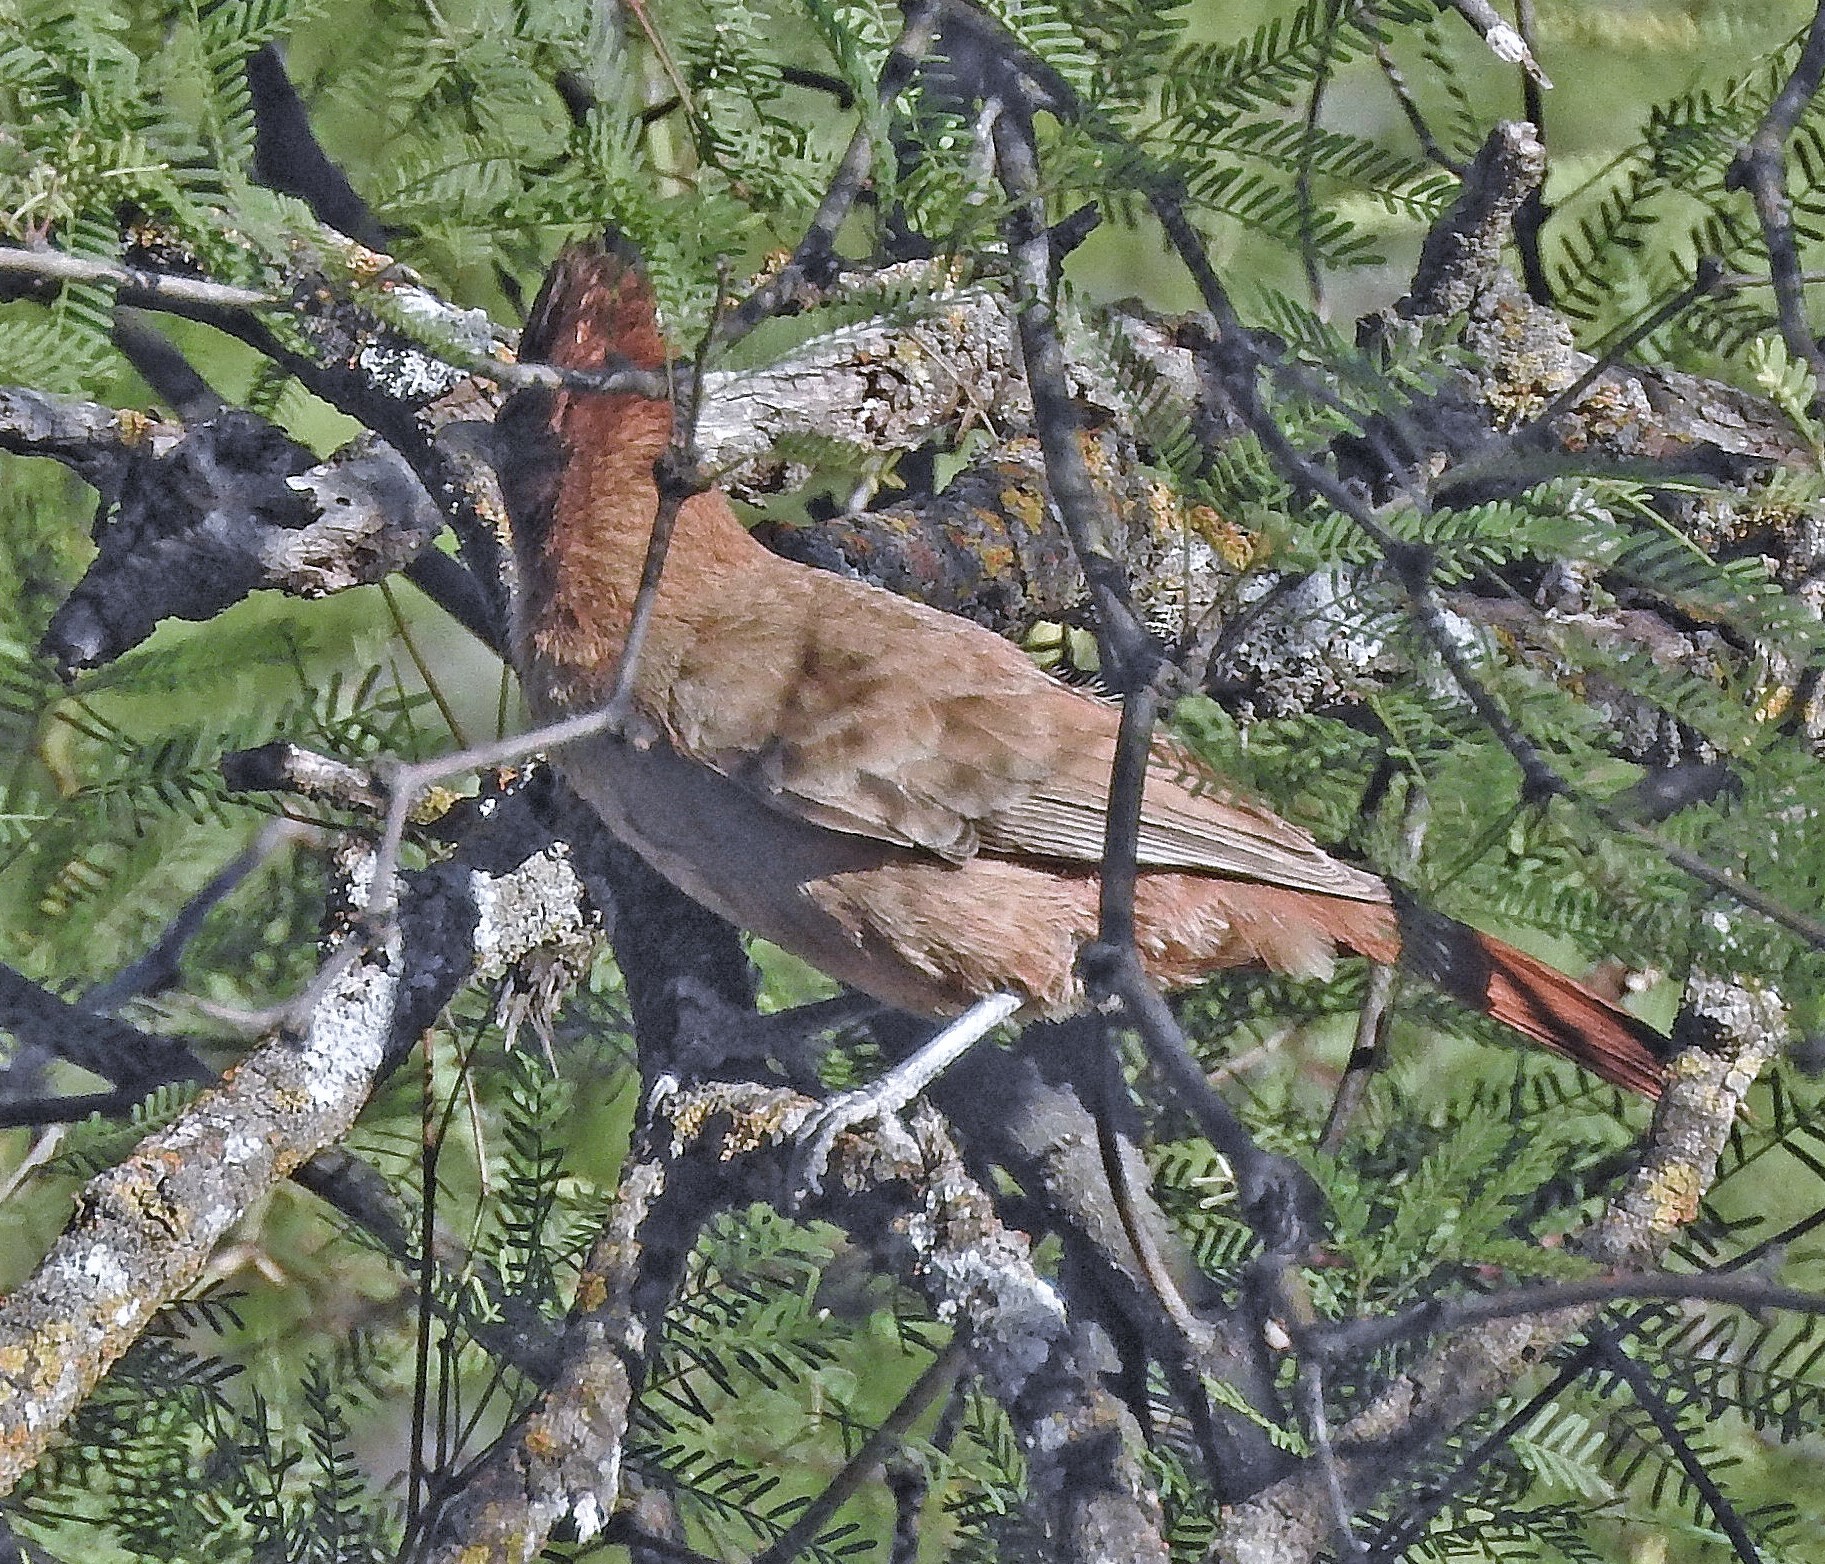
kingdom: Animalia
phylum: Chordata
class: Aves
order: Passeriformes
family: Furnariidae
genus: Pseudoseisura
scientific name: Pseudoseisura lophotes
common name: Brown cacholote
